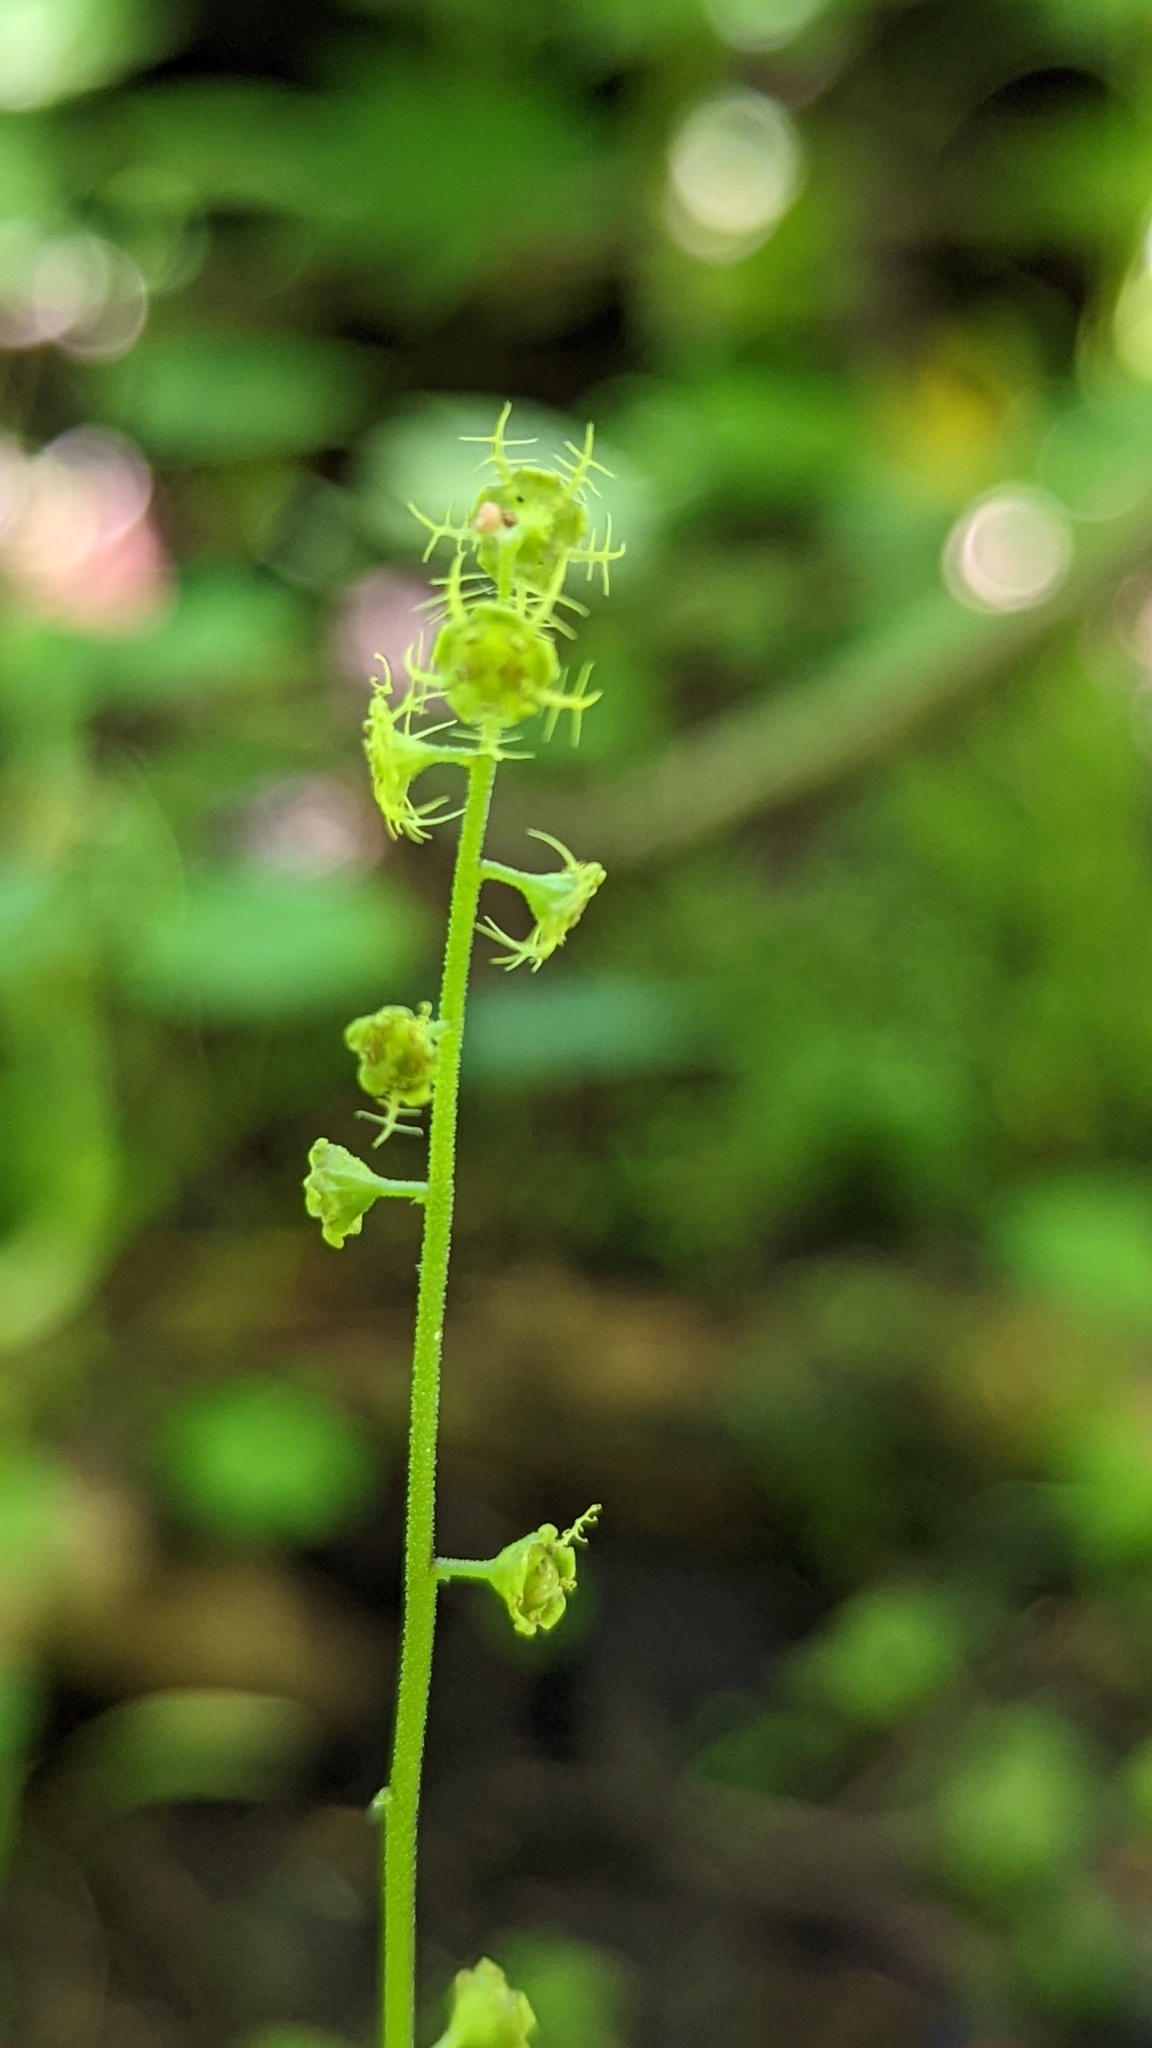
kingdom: Plantae
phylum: Tracheophyta
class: Magnoliopsida
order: Saxifragales
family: Saxifragaceae
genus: Pectiantia
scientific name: Pectiantia pentandra
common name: Alpine bishop's-cap
